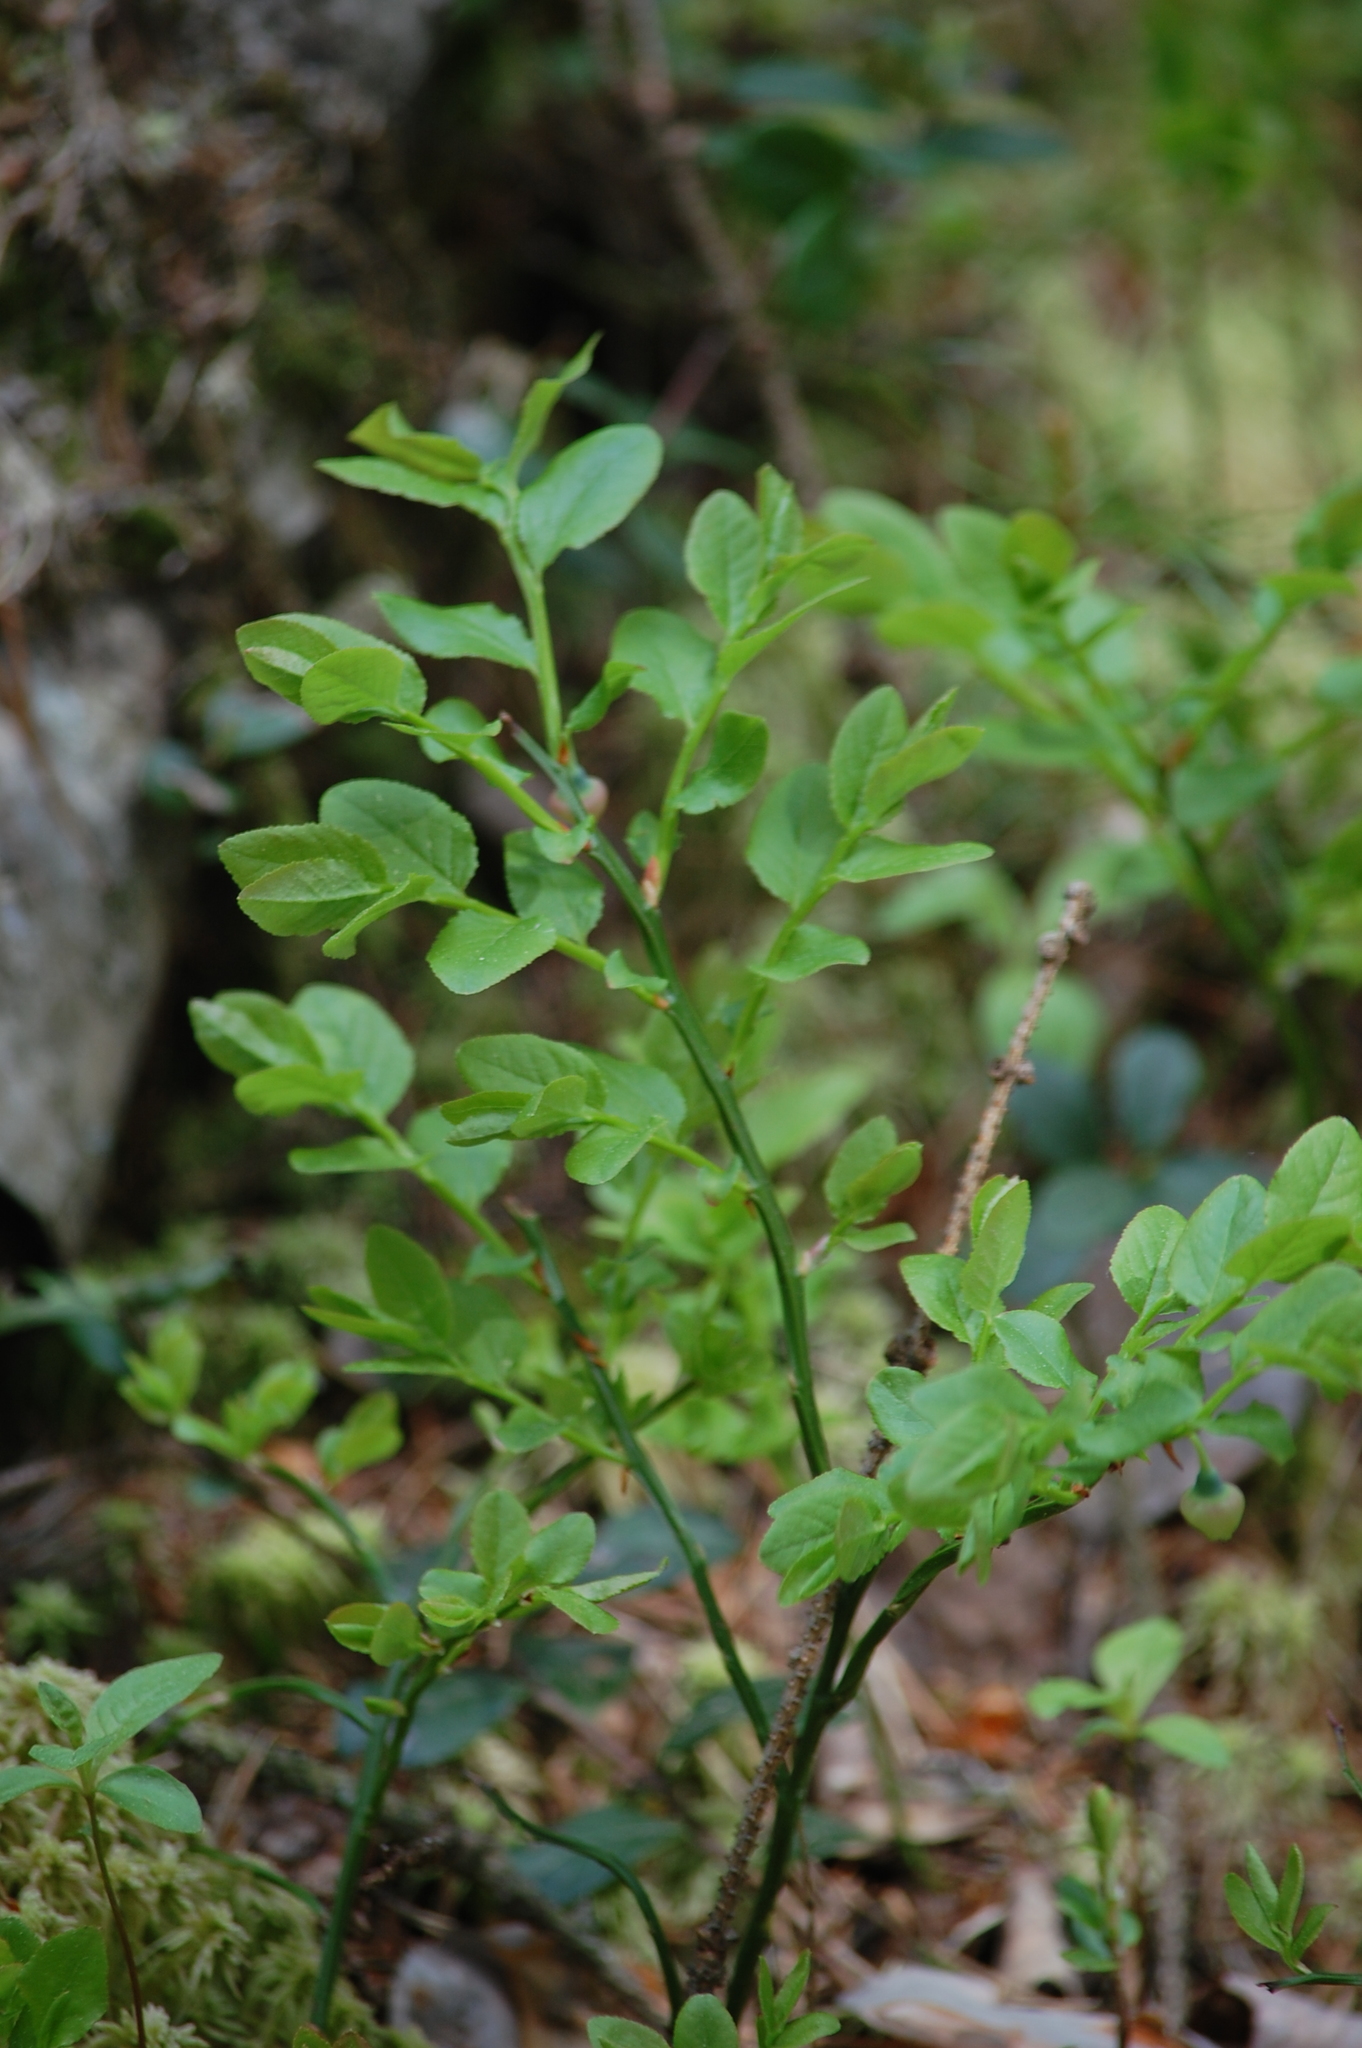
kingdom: Plantae
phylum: Tracheophyta
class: Magnoliopsida
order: Ericales
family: Ericaceae
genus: Vaccinium
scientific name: Vaccinium myrtillus
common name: Bilberry
